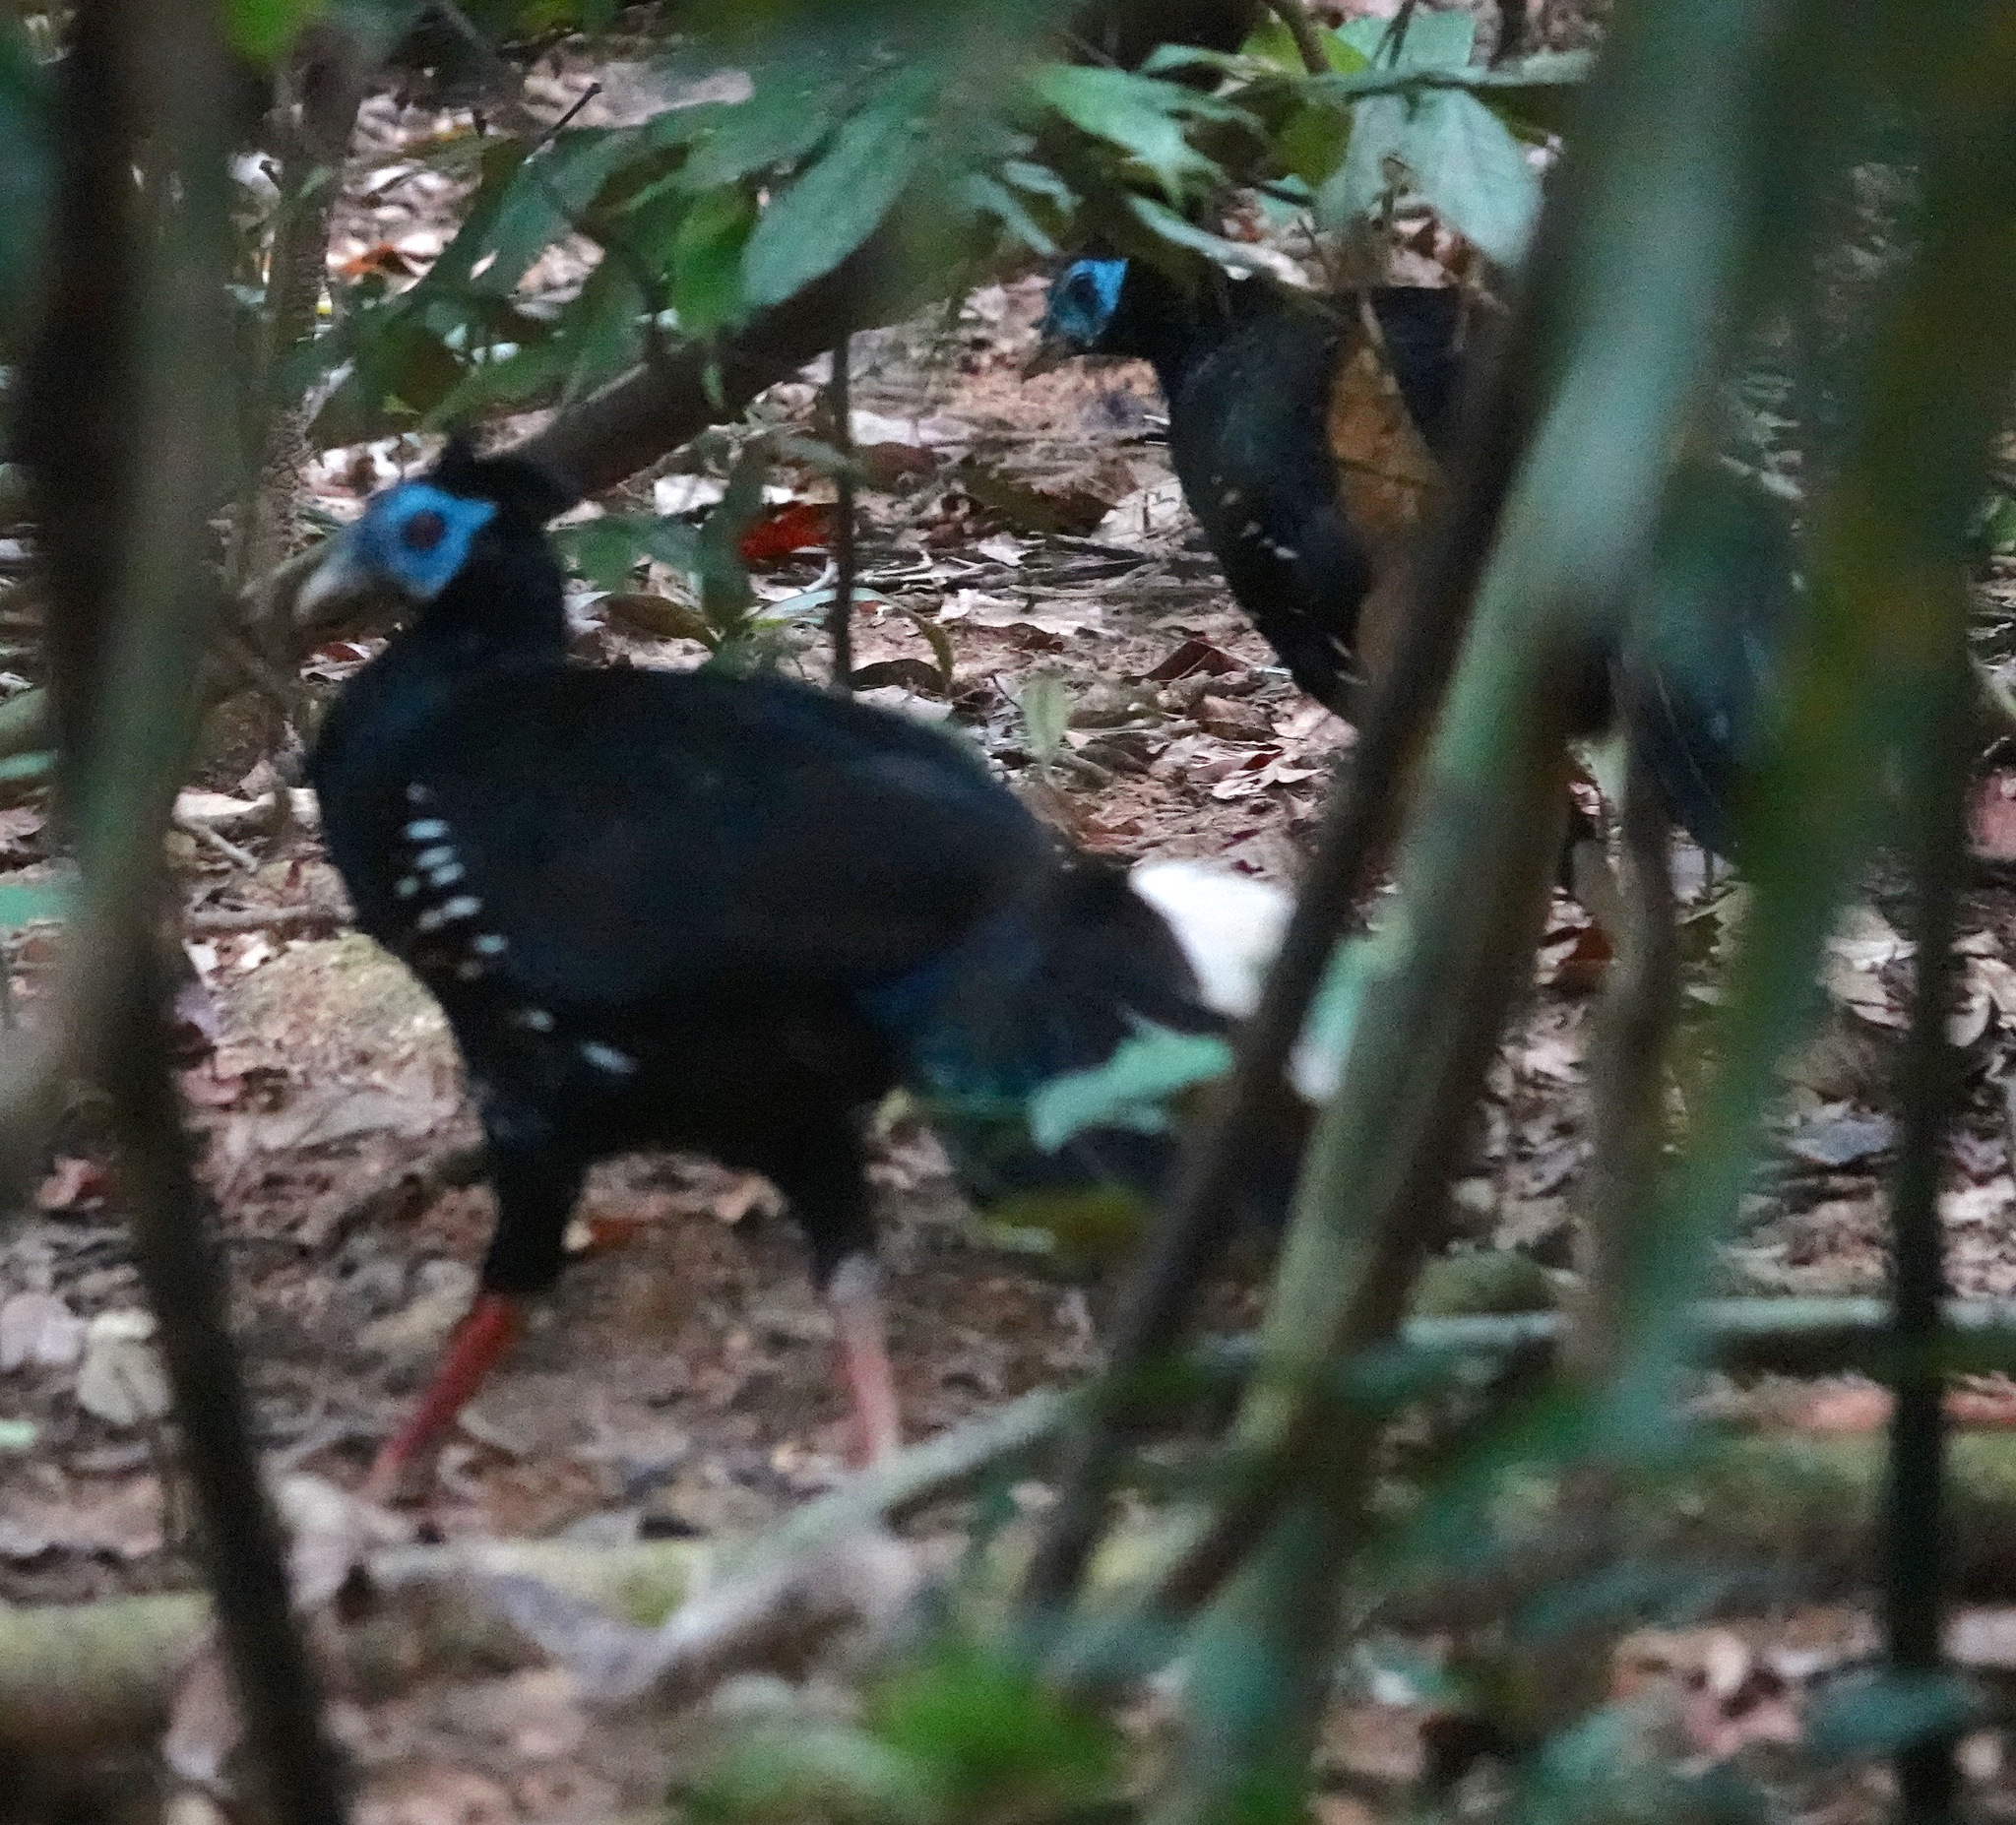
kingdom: Animalia
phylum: Chordata
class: Aves
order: Galliformes
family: Phasianidae
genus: Lophura
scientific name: Lophura ignita
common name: Crested fireback
